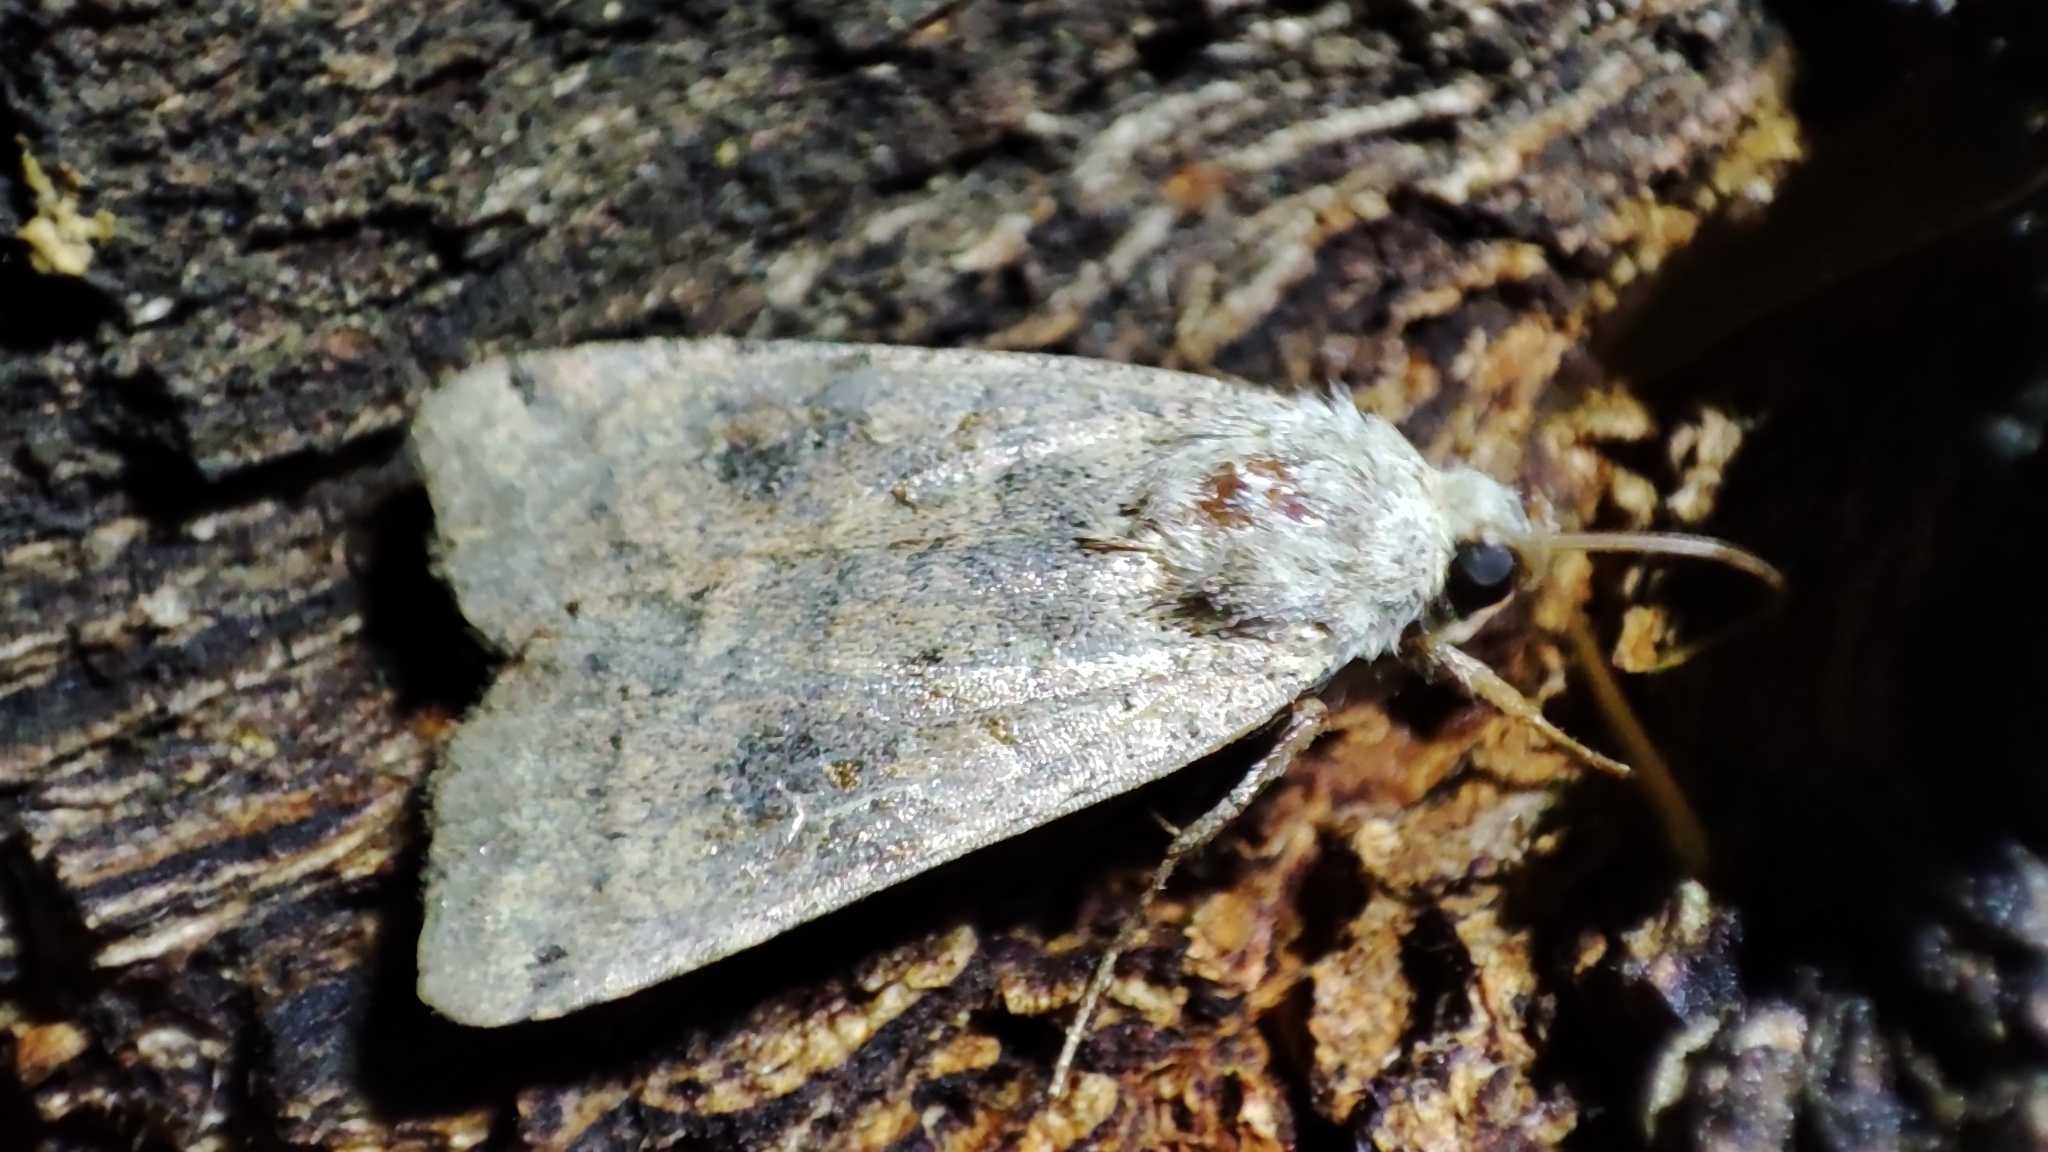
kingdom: Animalia
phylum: Arthropoda
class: Insecta
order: Lepidoptera
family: Noctuidae
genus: Xestia
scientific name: Xestia baja
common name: Dotted clay
